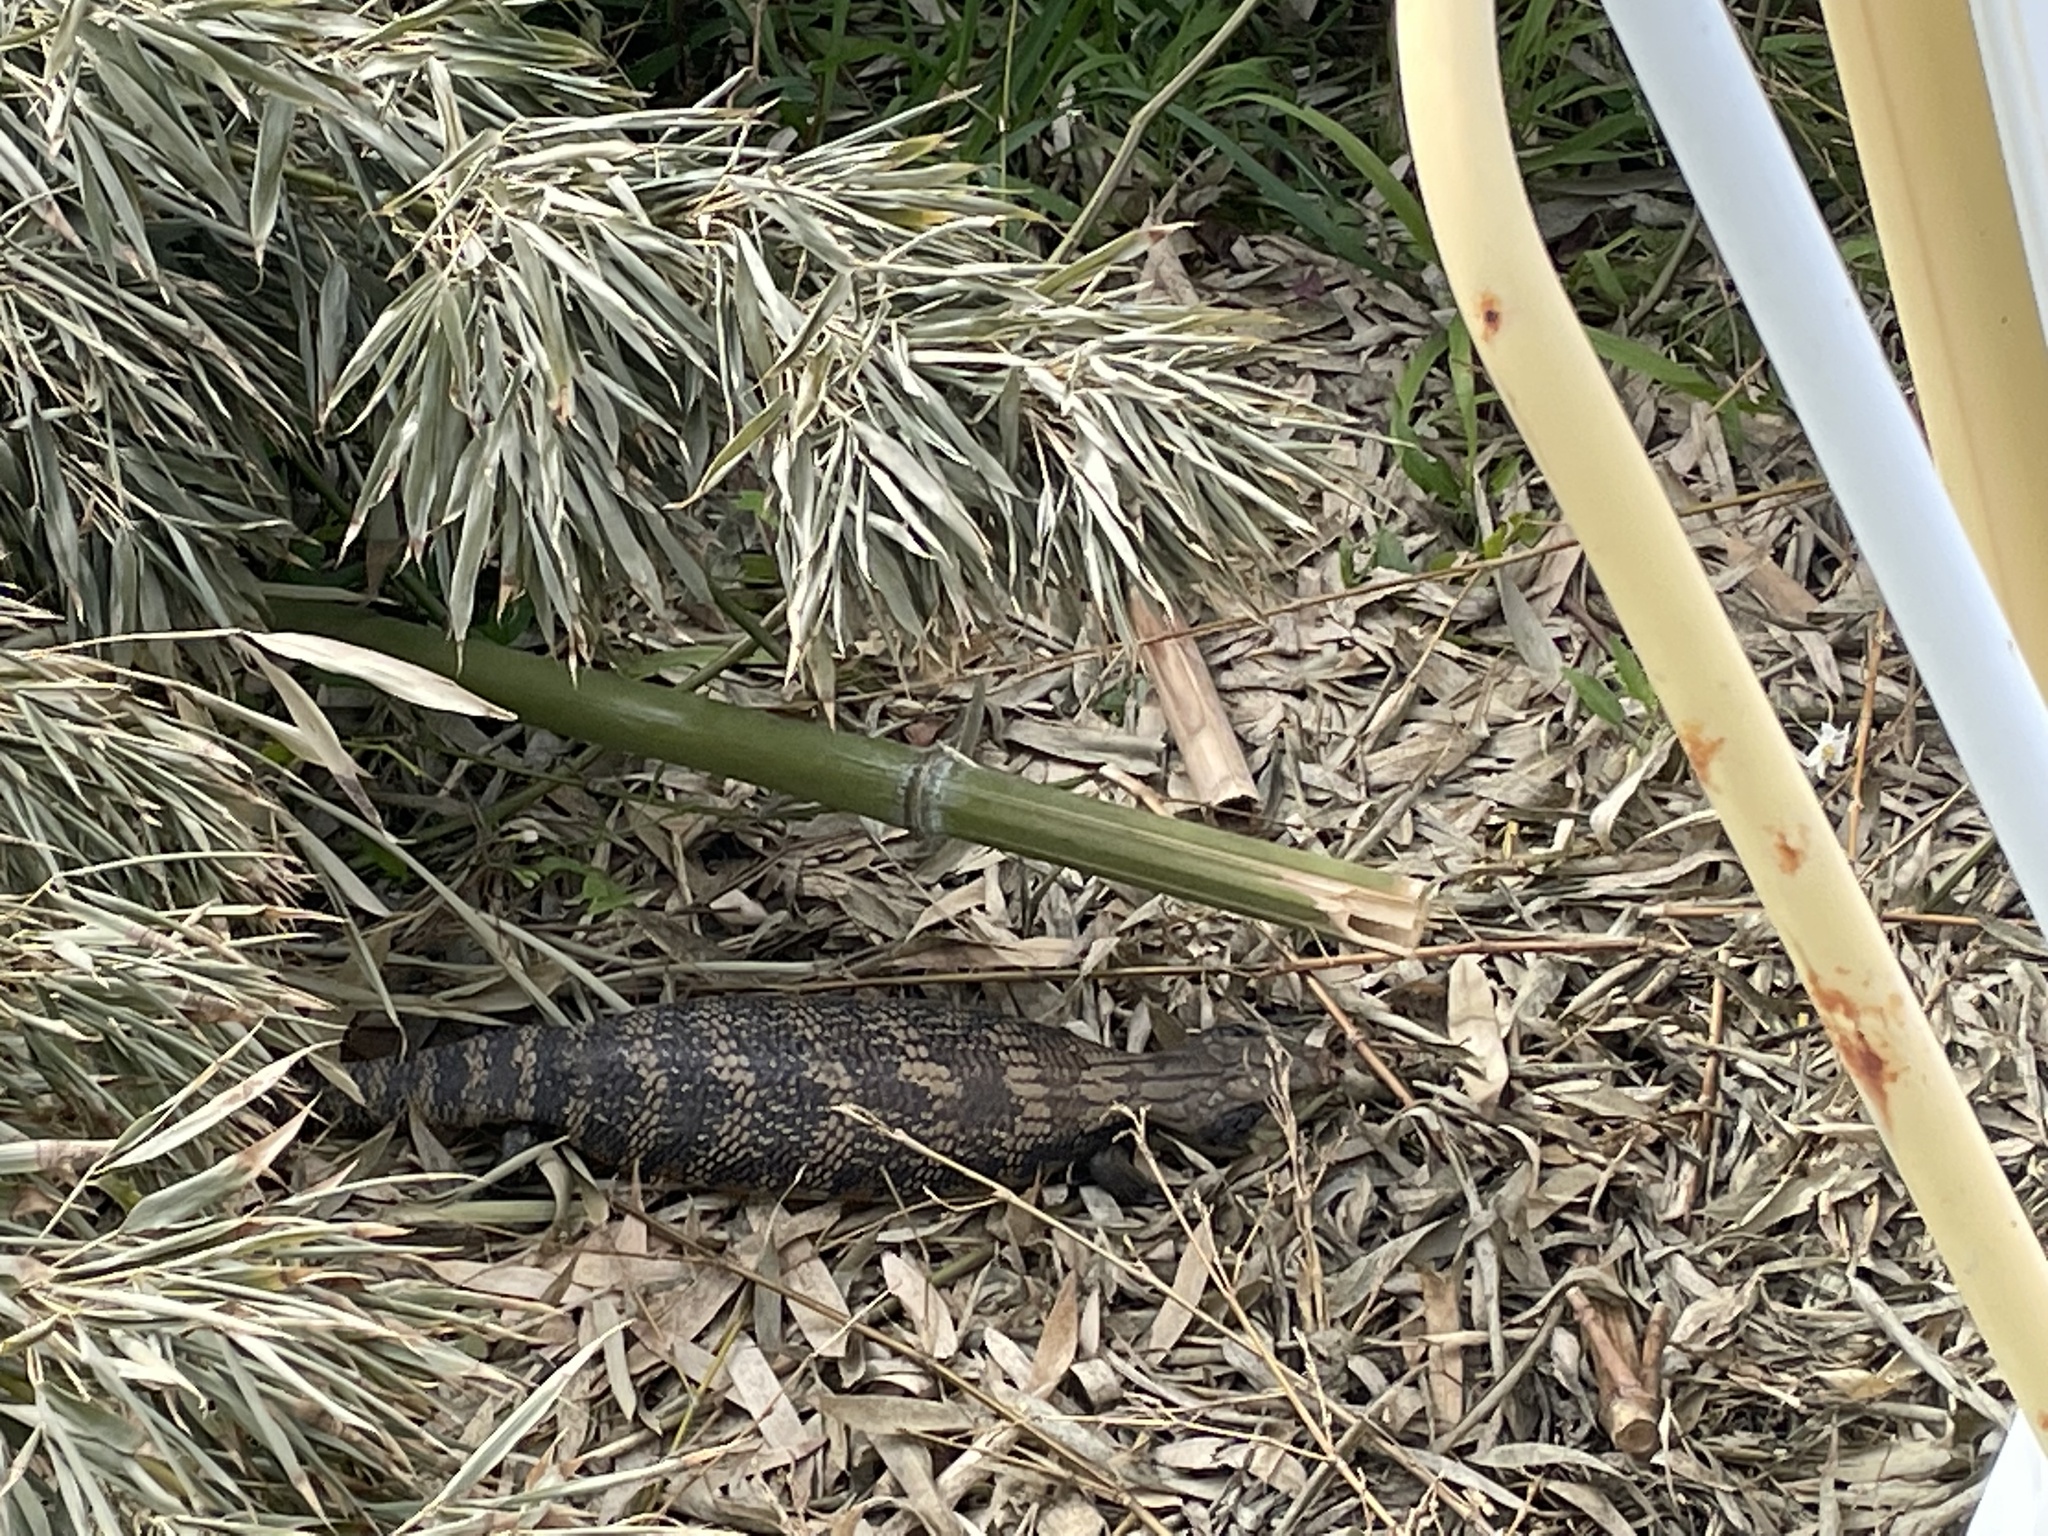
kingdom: Animalia
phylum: Chordata
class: Squamata
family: Scincidae
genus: Tiliqua
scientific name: Tiliqua scincoides
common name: Common bluetongue
